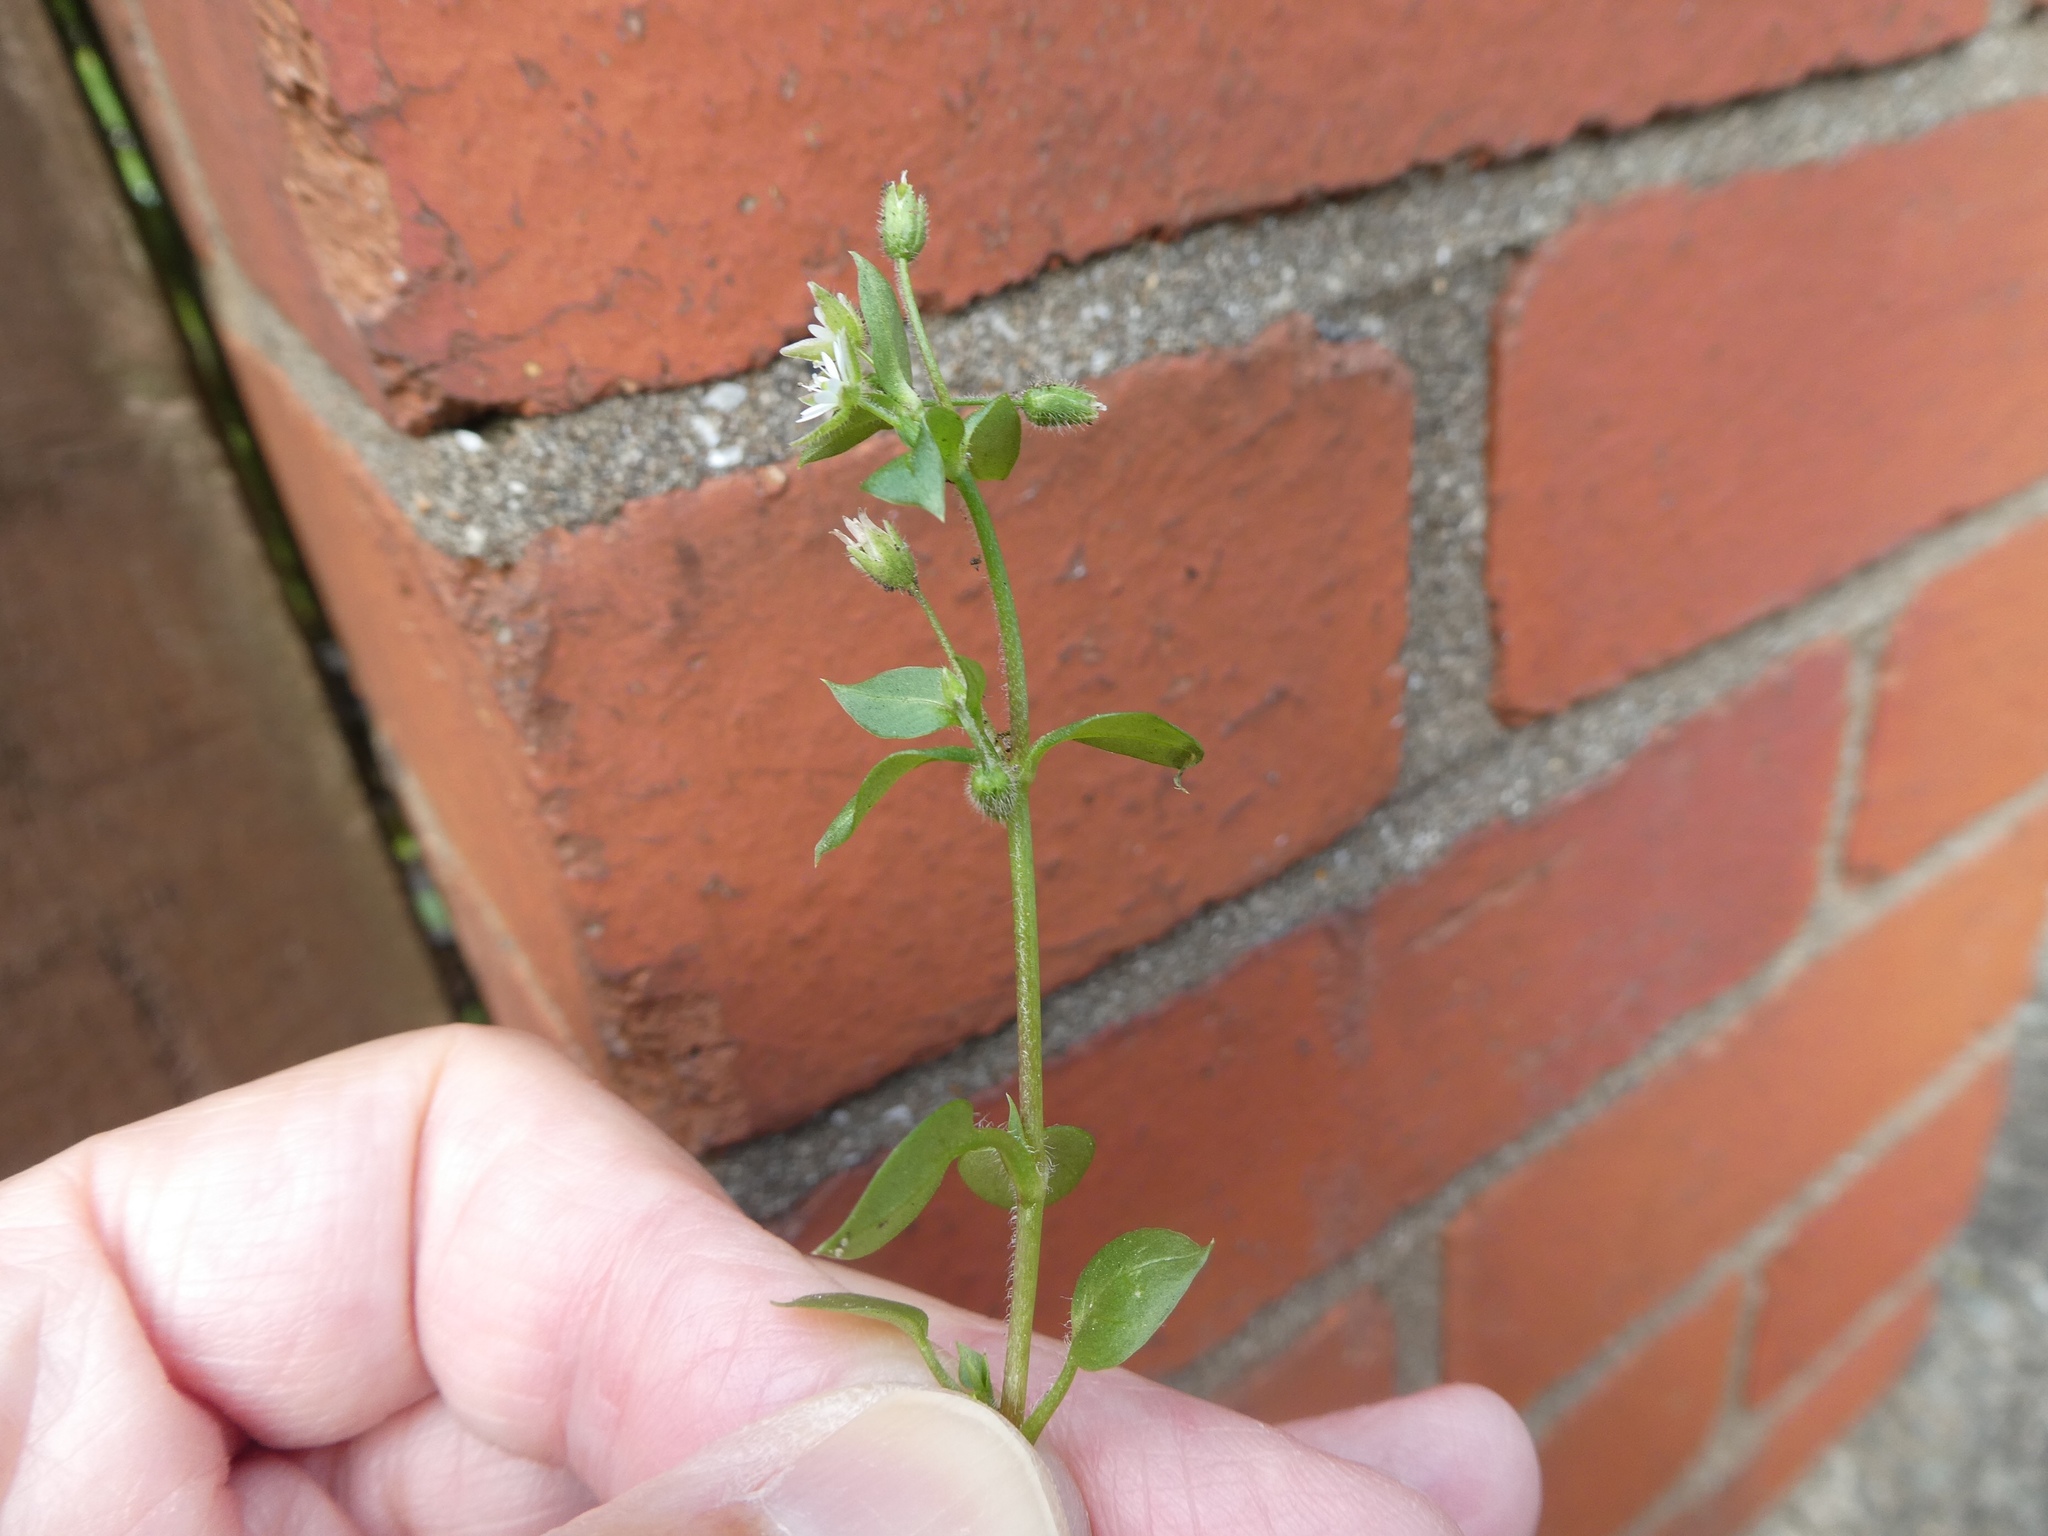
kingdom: Plantae
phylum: Tracheophyta
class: Magnoliopsida
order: Caryophyllales
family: Caryophyllaceae
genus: Stellaria
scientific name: Stellaria media
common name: Common chickweed
